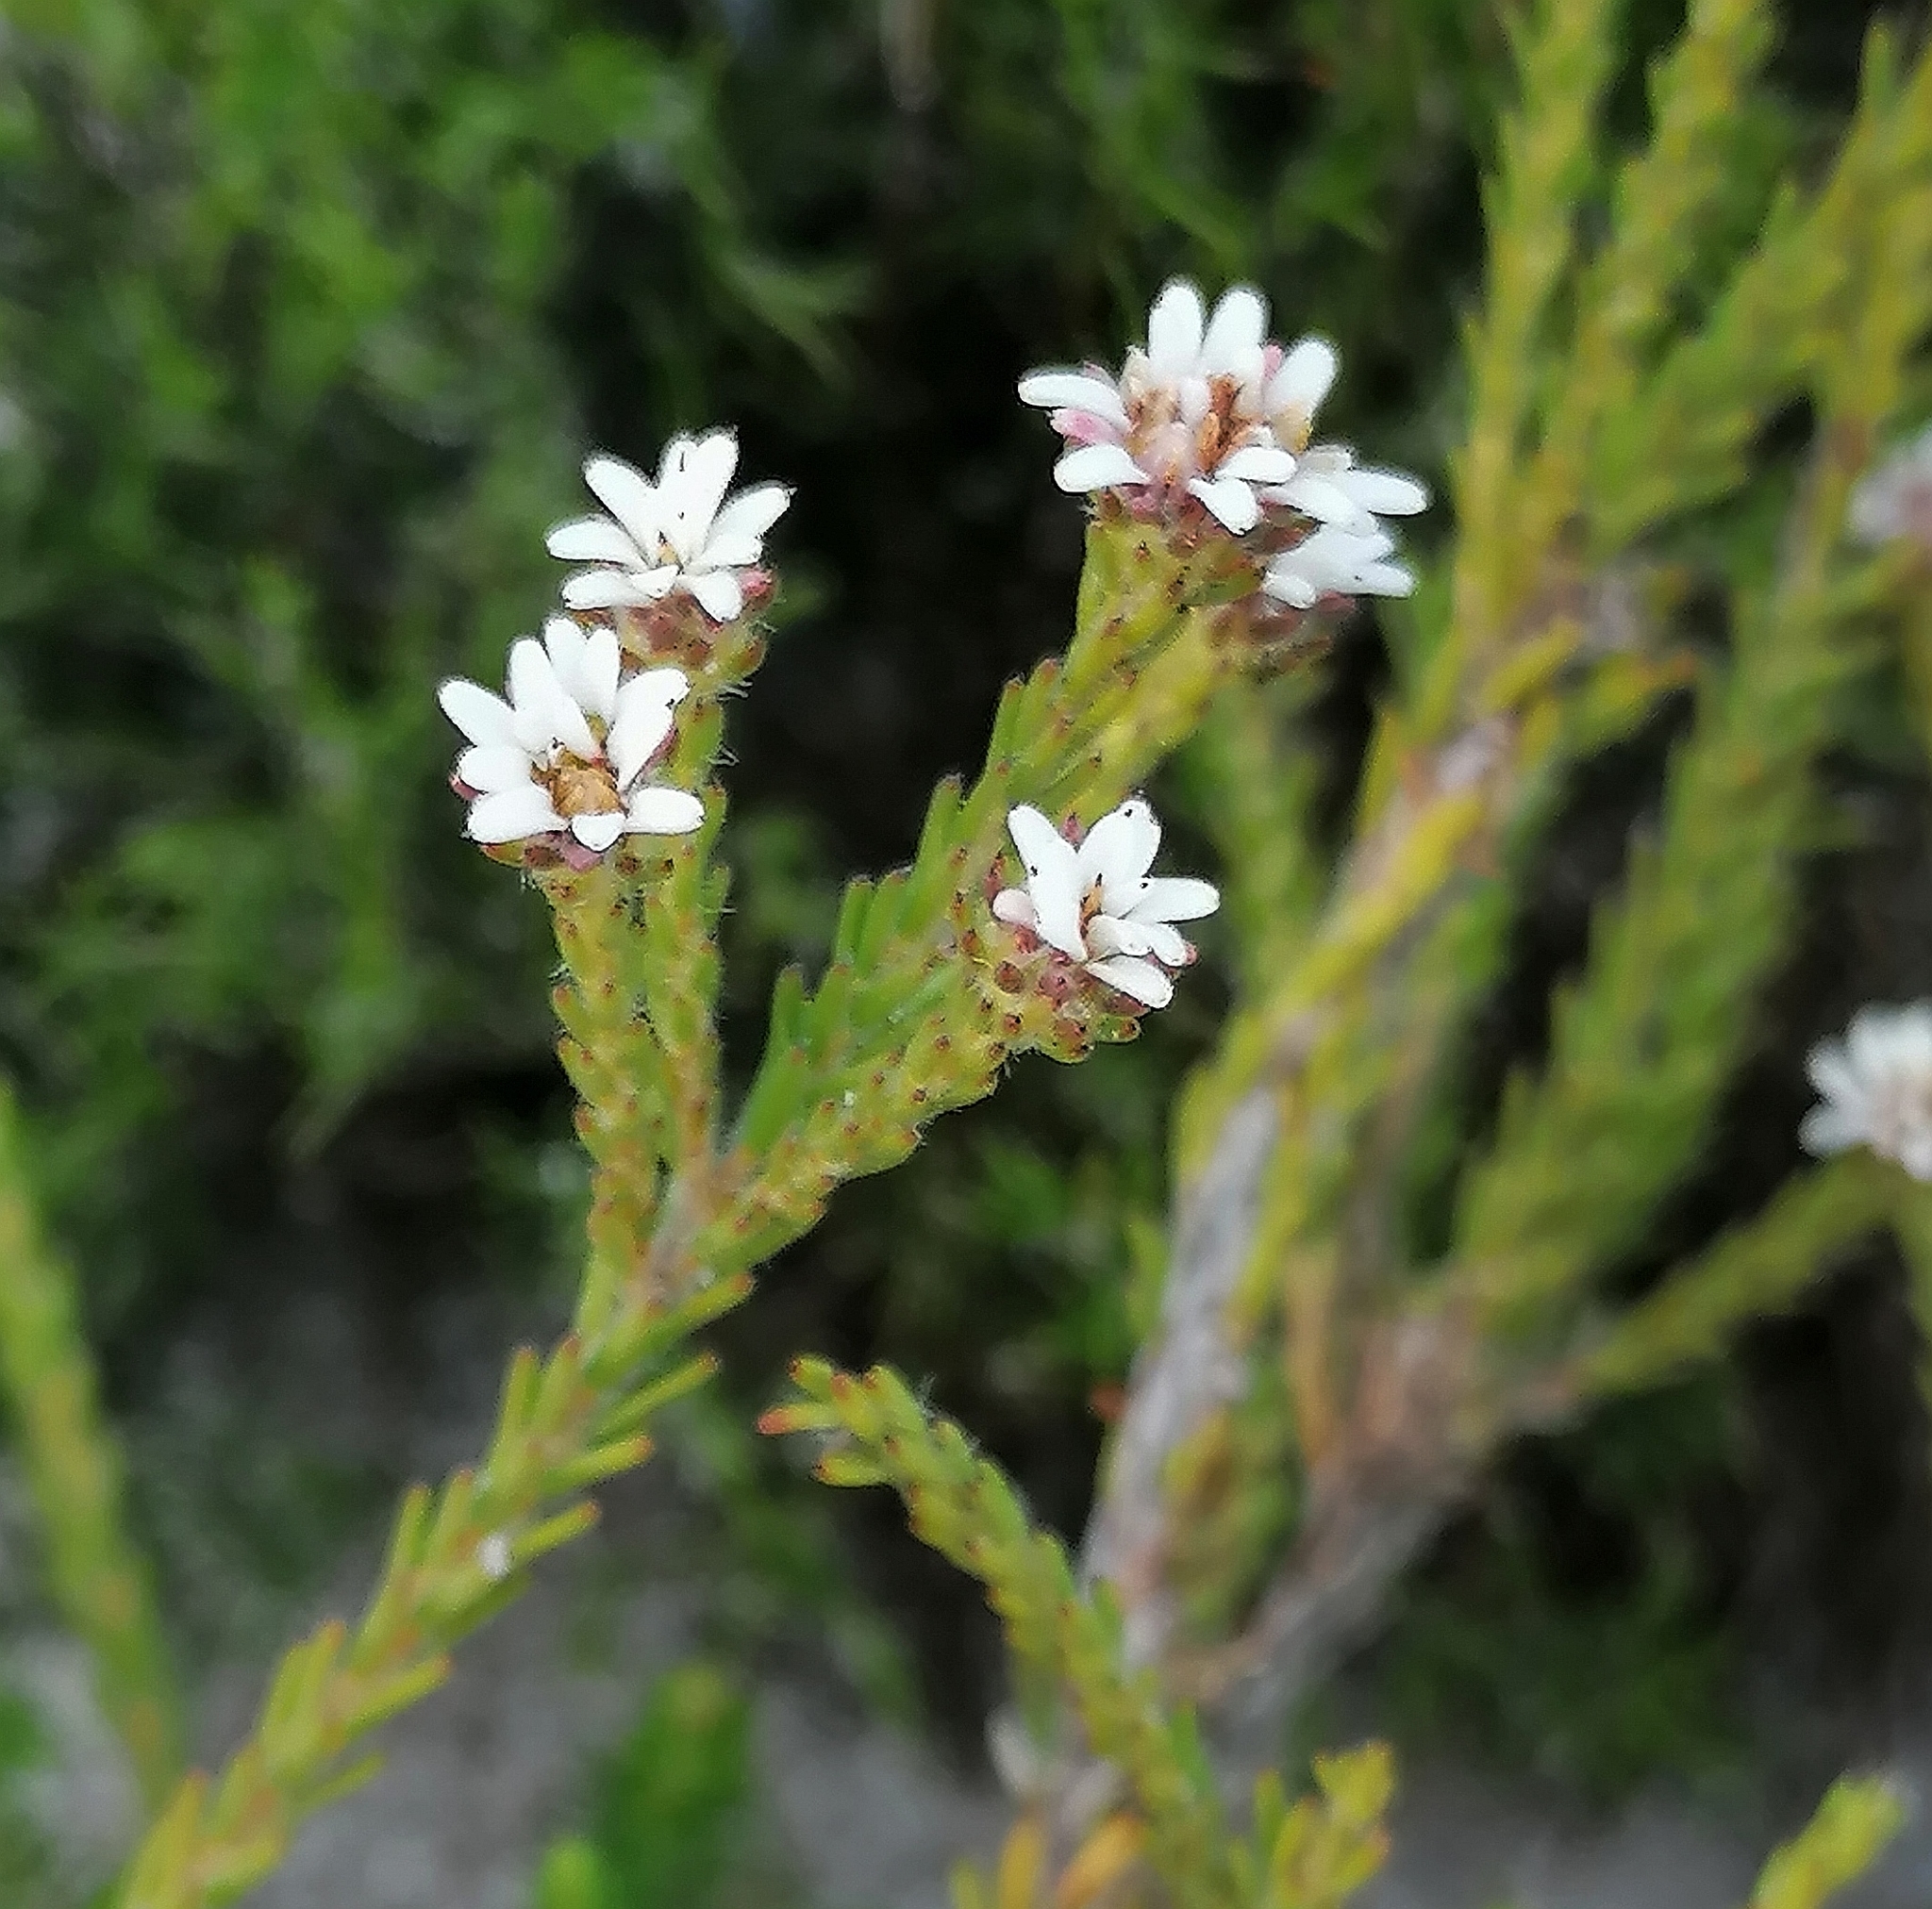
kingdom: Plantae
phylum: Tracheophyta
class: Magnoliopsida
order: Bruniales
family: Bruniaceae
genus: Staavia
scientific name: Staavia radiata
